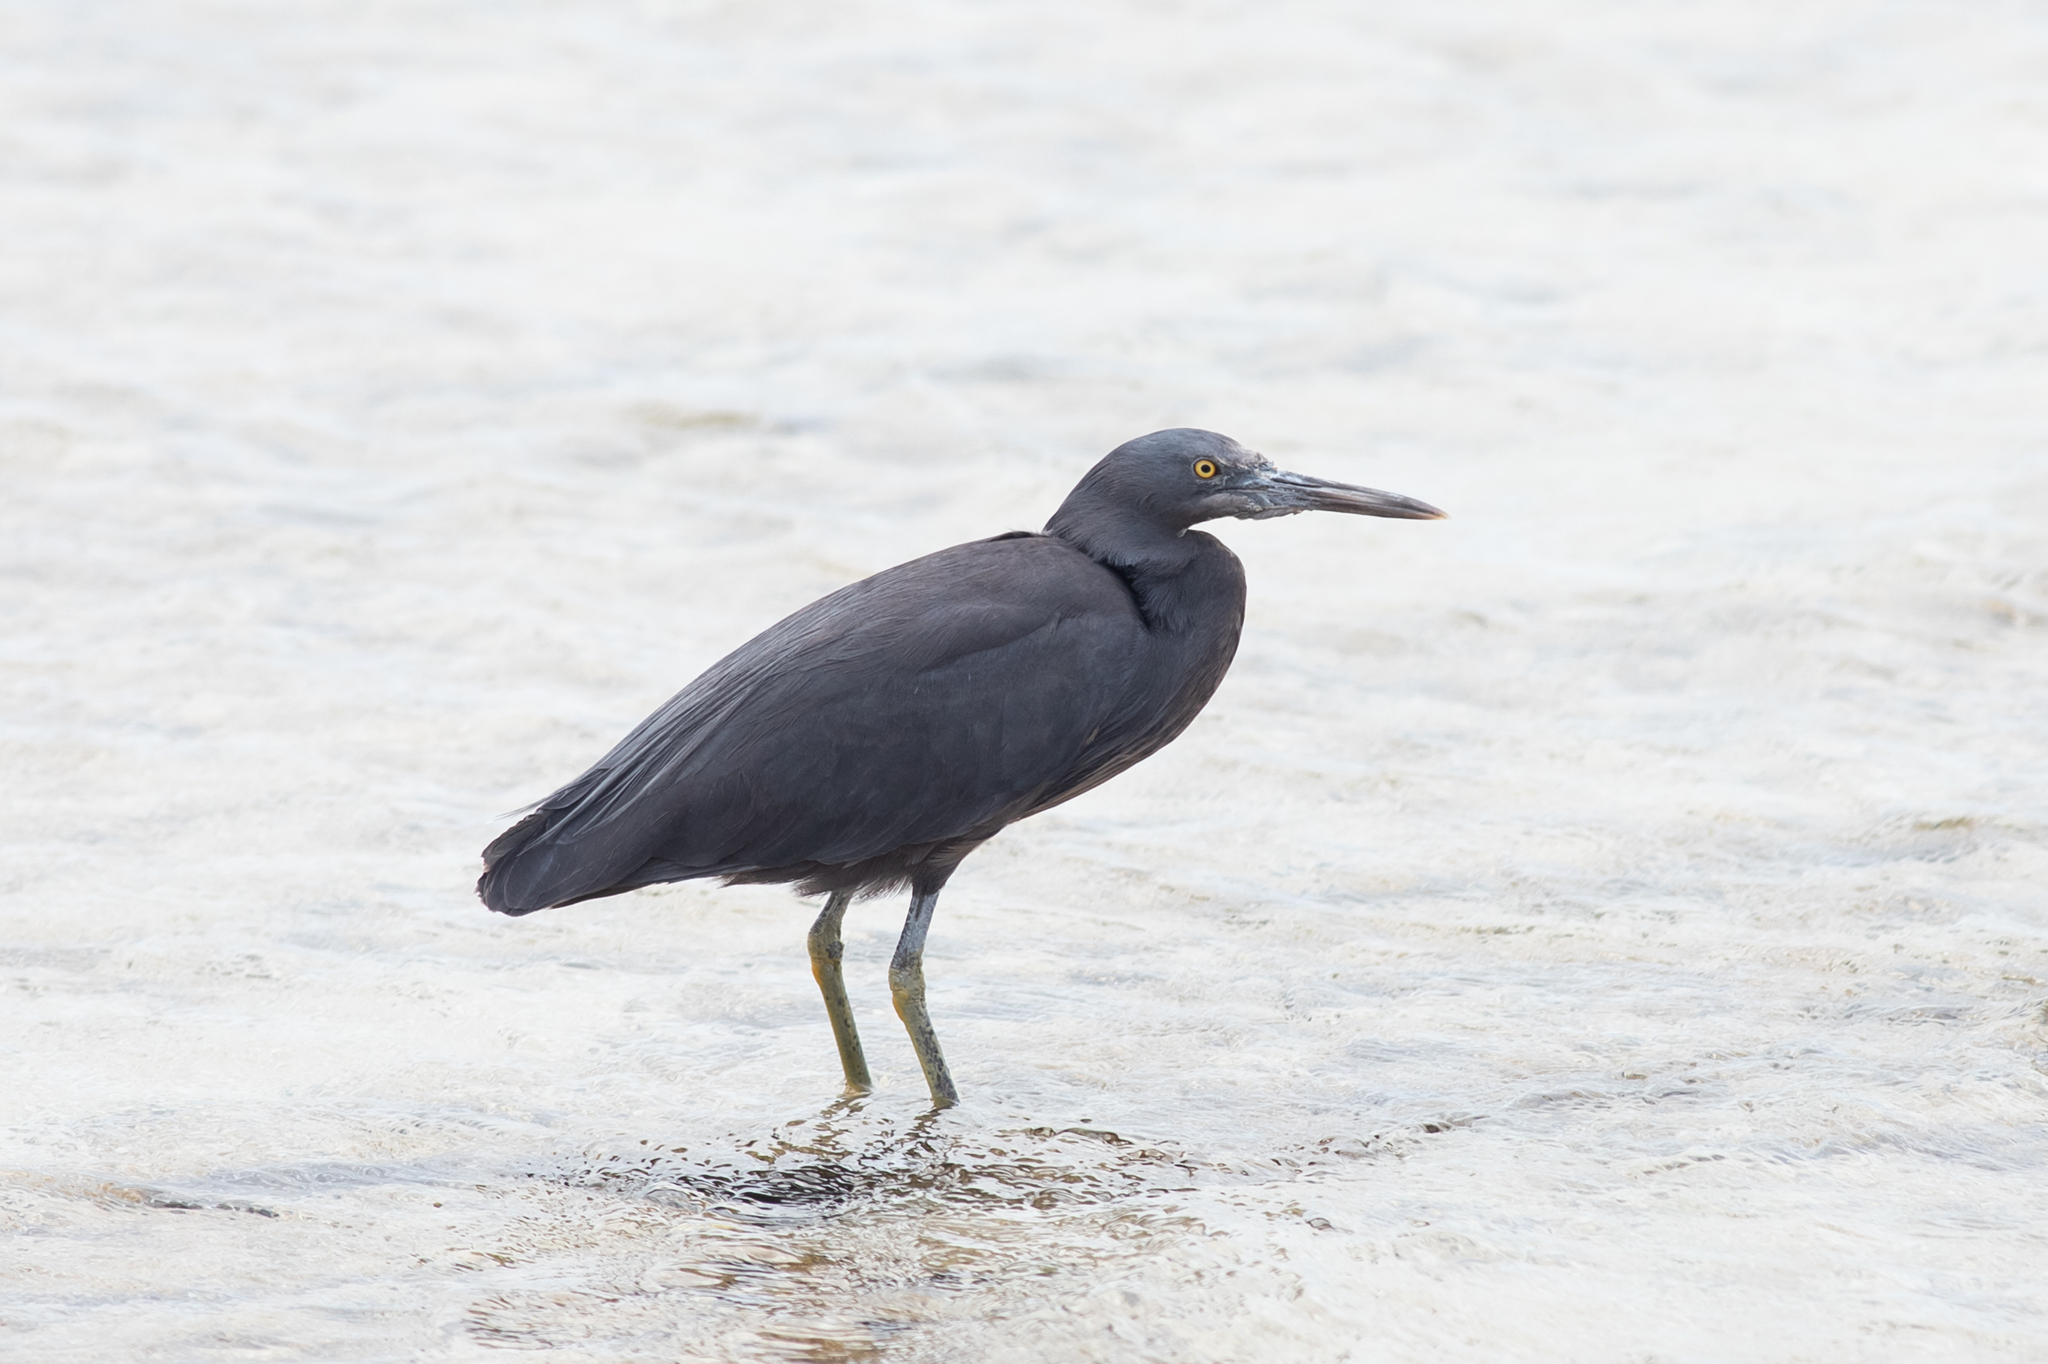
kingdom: Animalia
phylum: Chordata
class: Aves
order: Pelecaniformes
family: Ardeidae
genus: Egretta
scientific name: Egretta sacra
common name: Pacific reef heron
